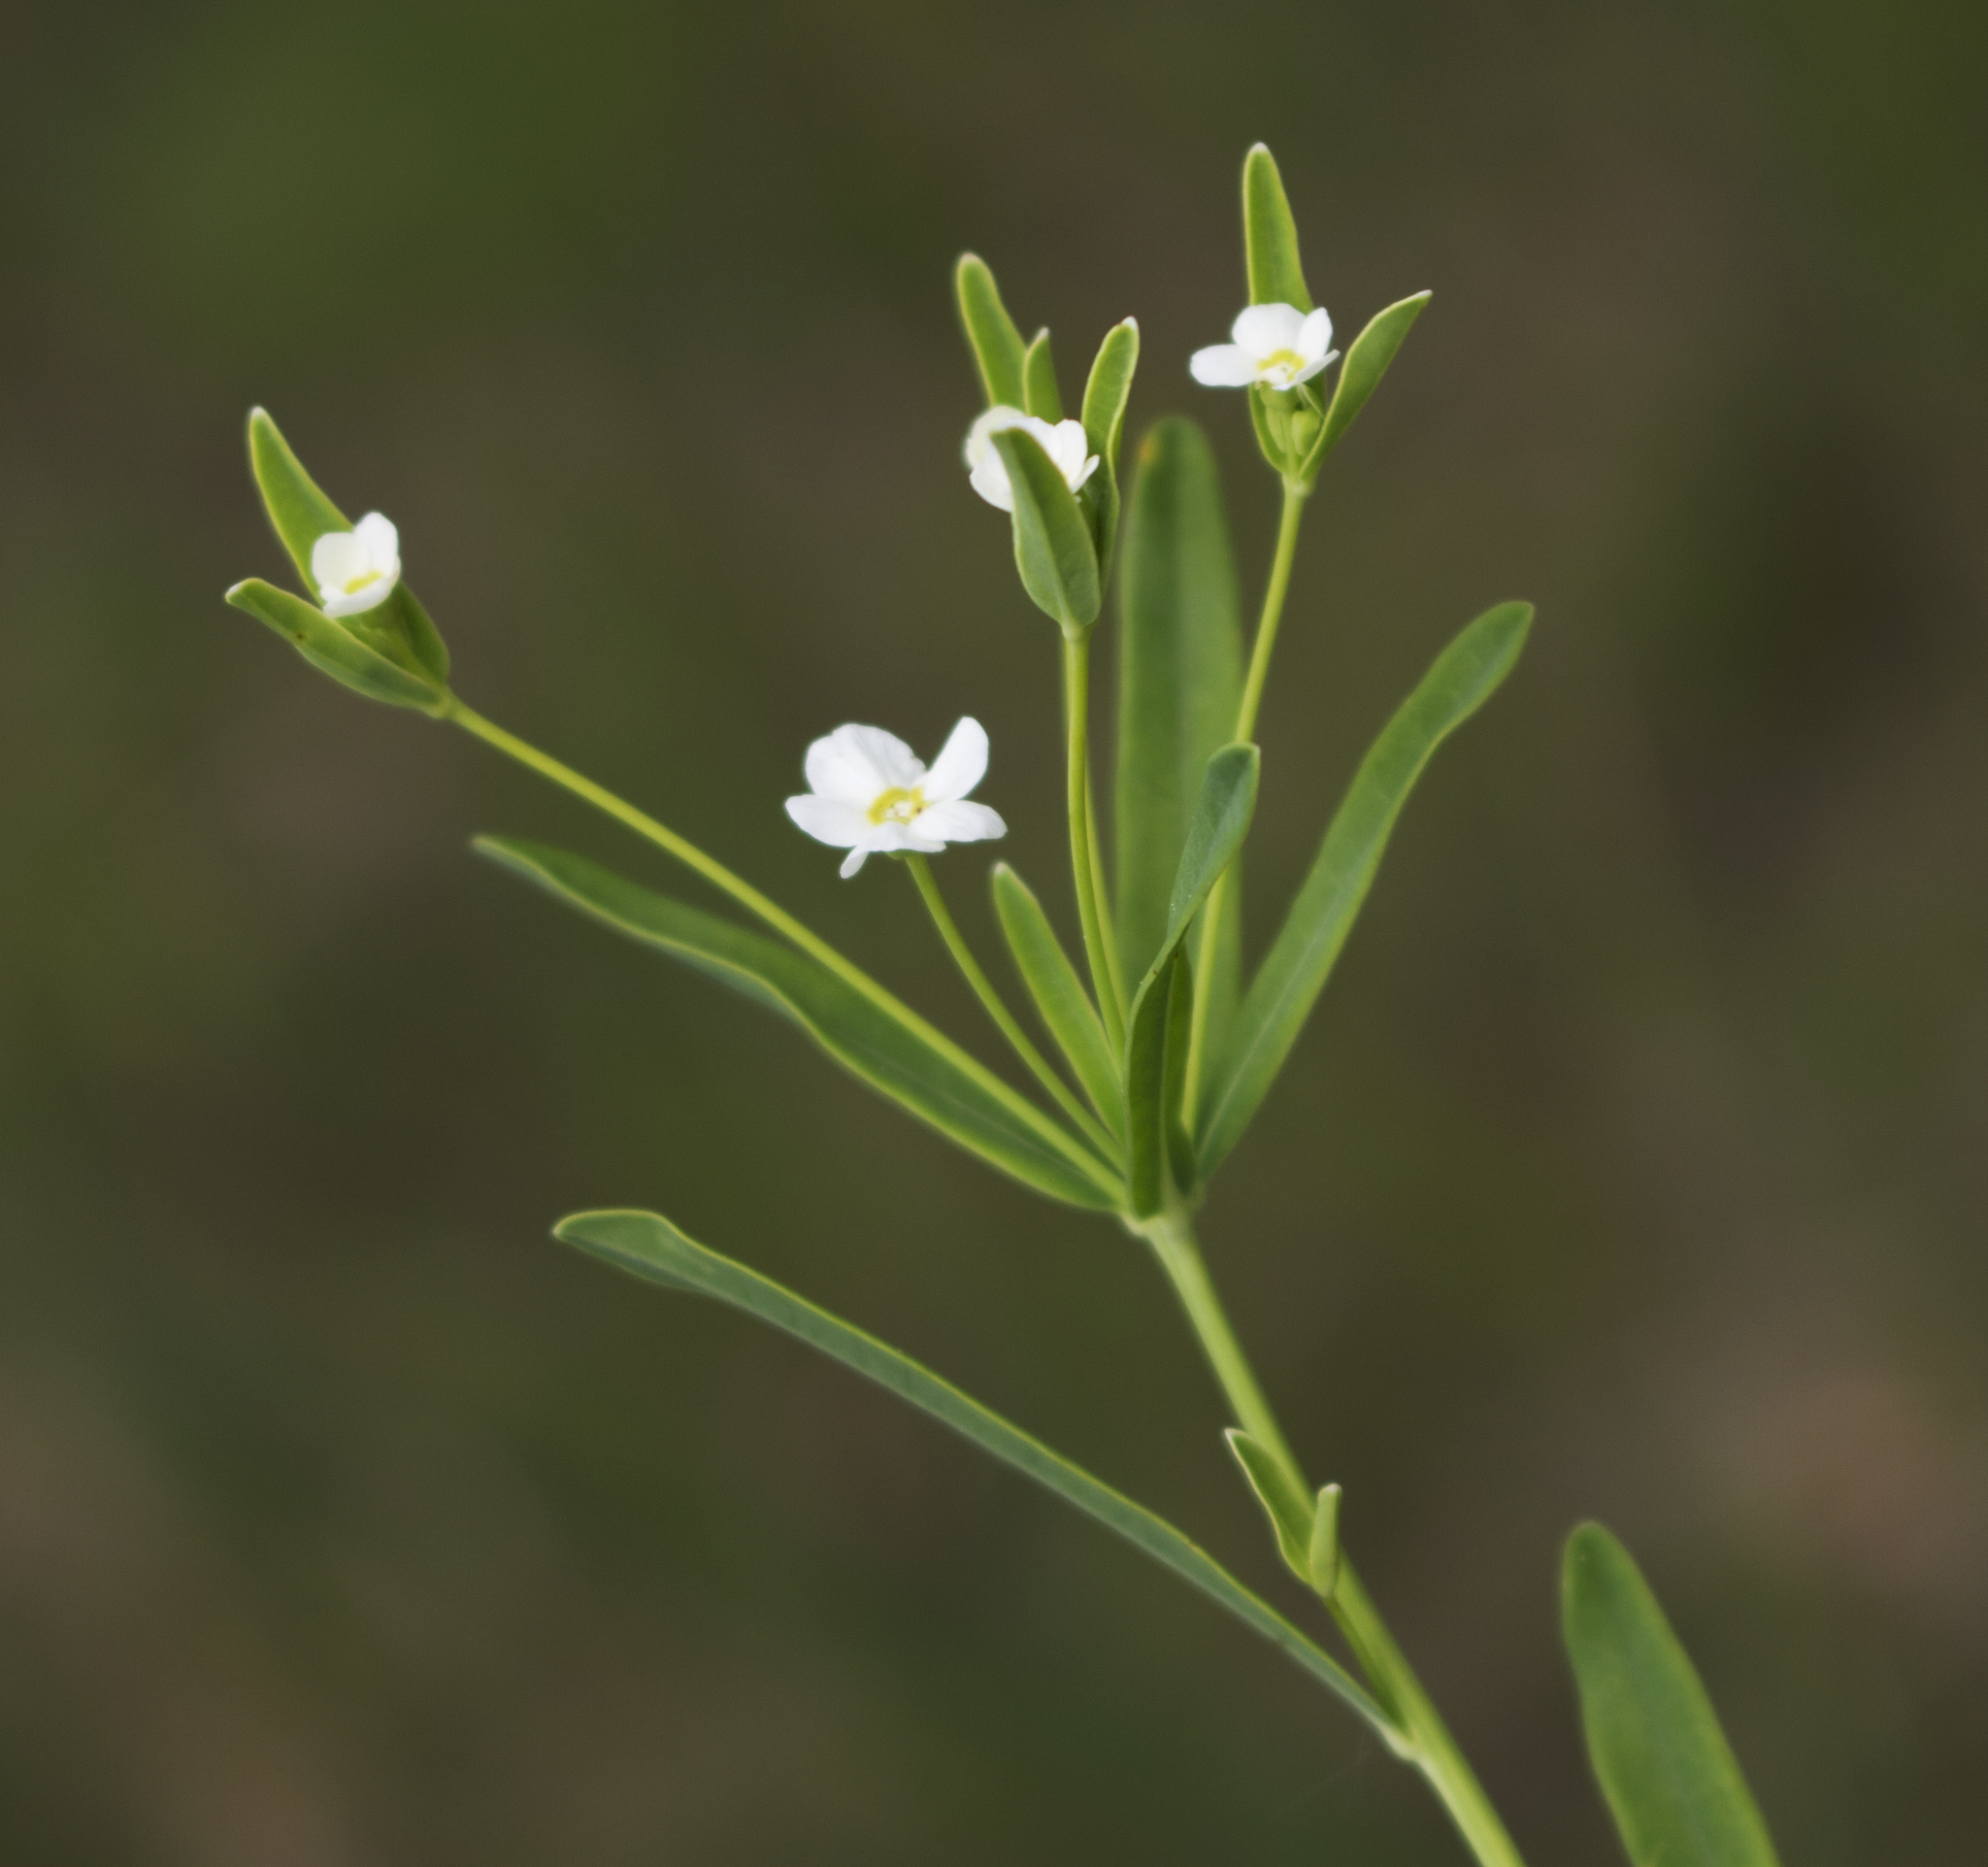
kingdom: Plantae
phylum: Tracheophyta
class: Magnoliopsida
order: Malpighiales
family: Euphorbiaceae
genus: Euphorbia
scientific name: Euphorbia corollata
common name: Flowering spurge
